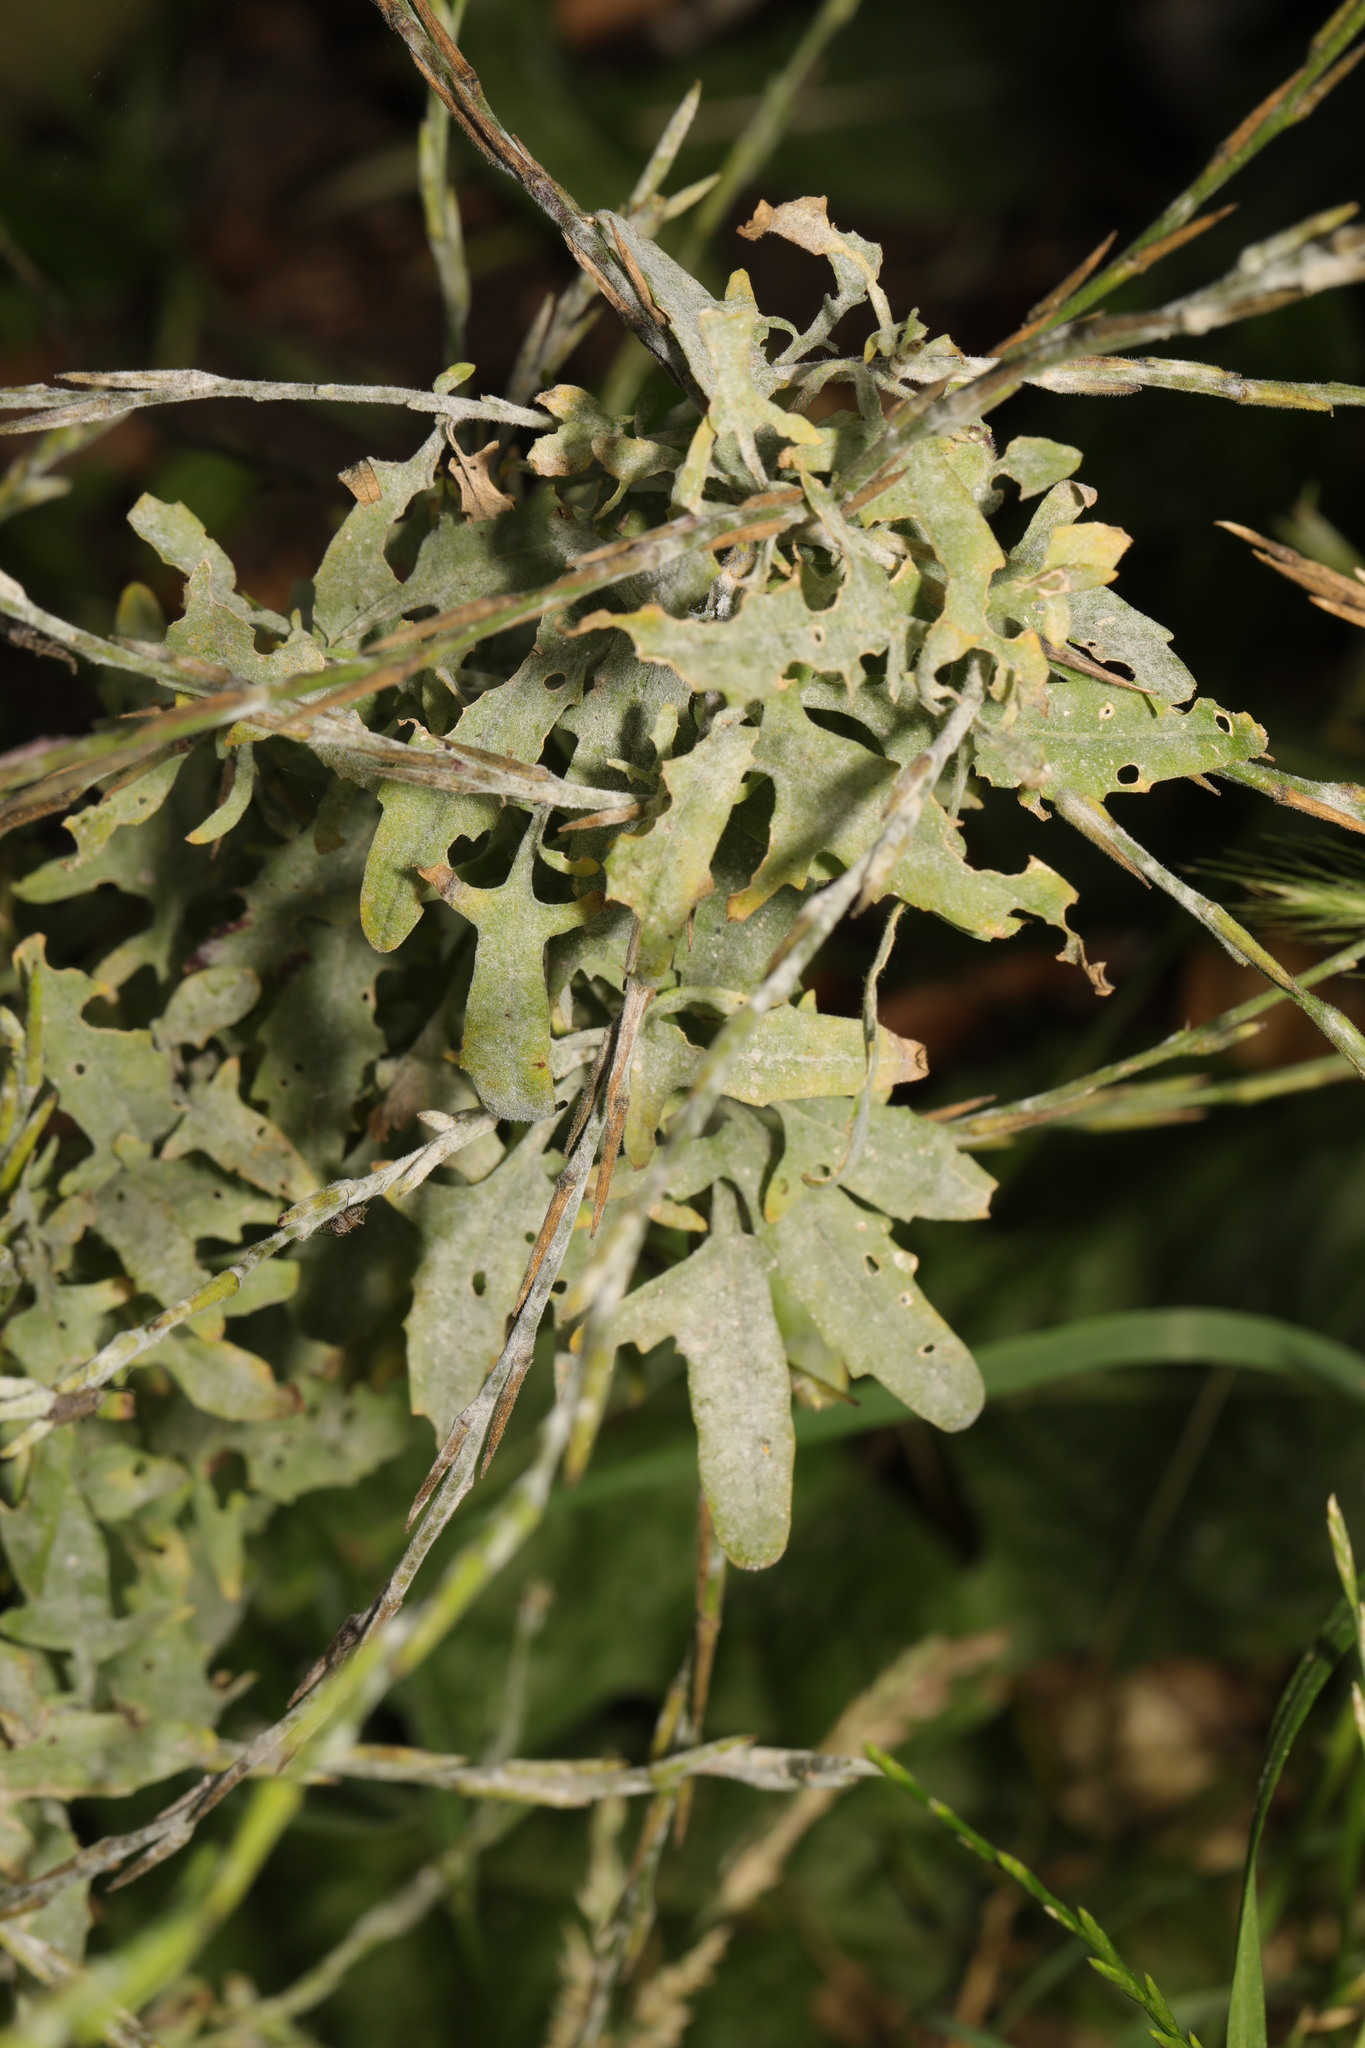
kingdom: Fungi
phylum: Ascomycota
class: Leotiomycetes
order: Helotiales
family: Erysiphaceae
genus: Erysiphe
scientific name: Erysiphe cruciferarum
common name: Brassica powdery mildew
